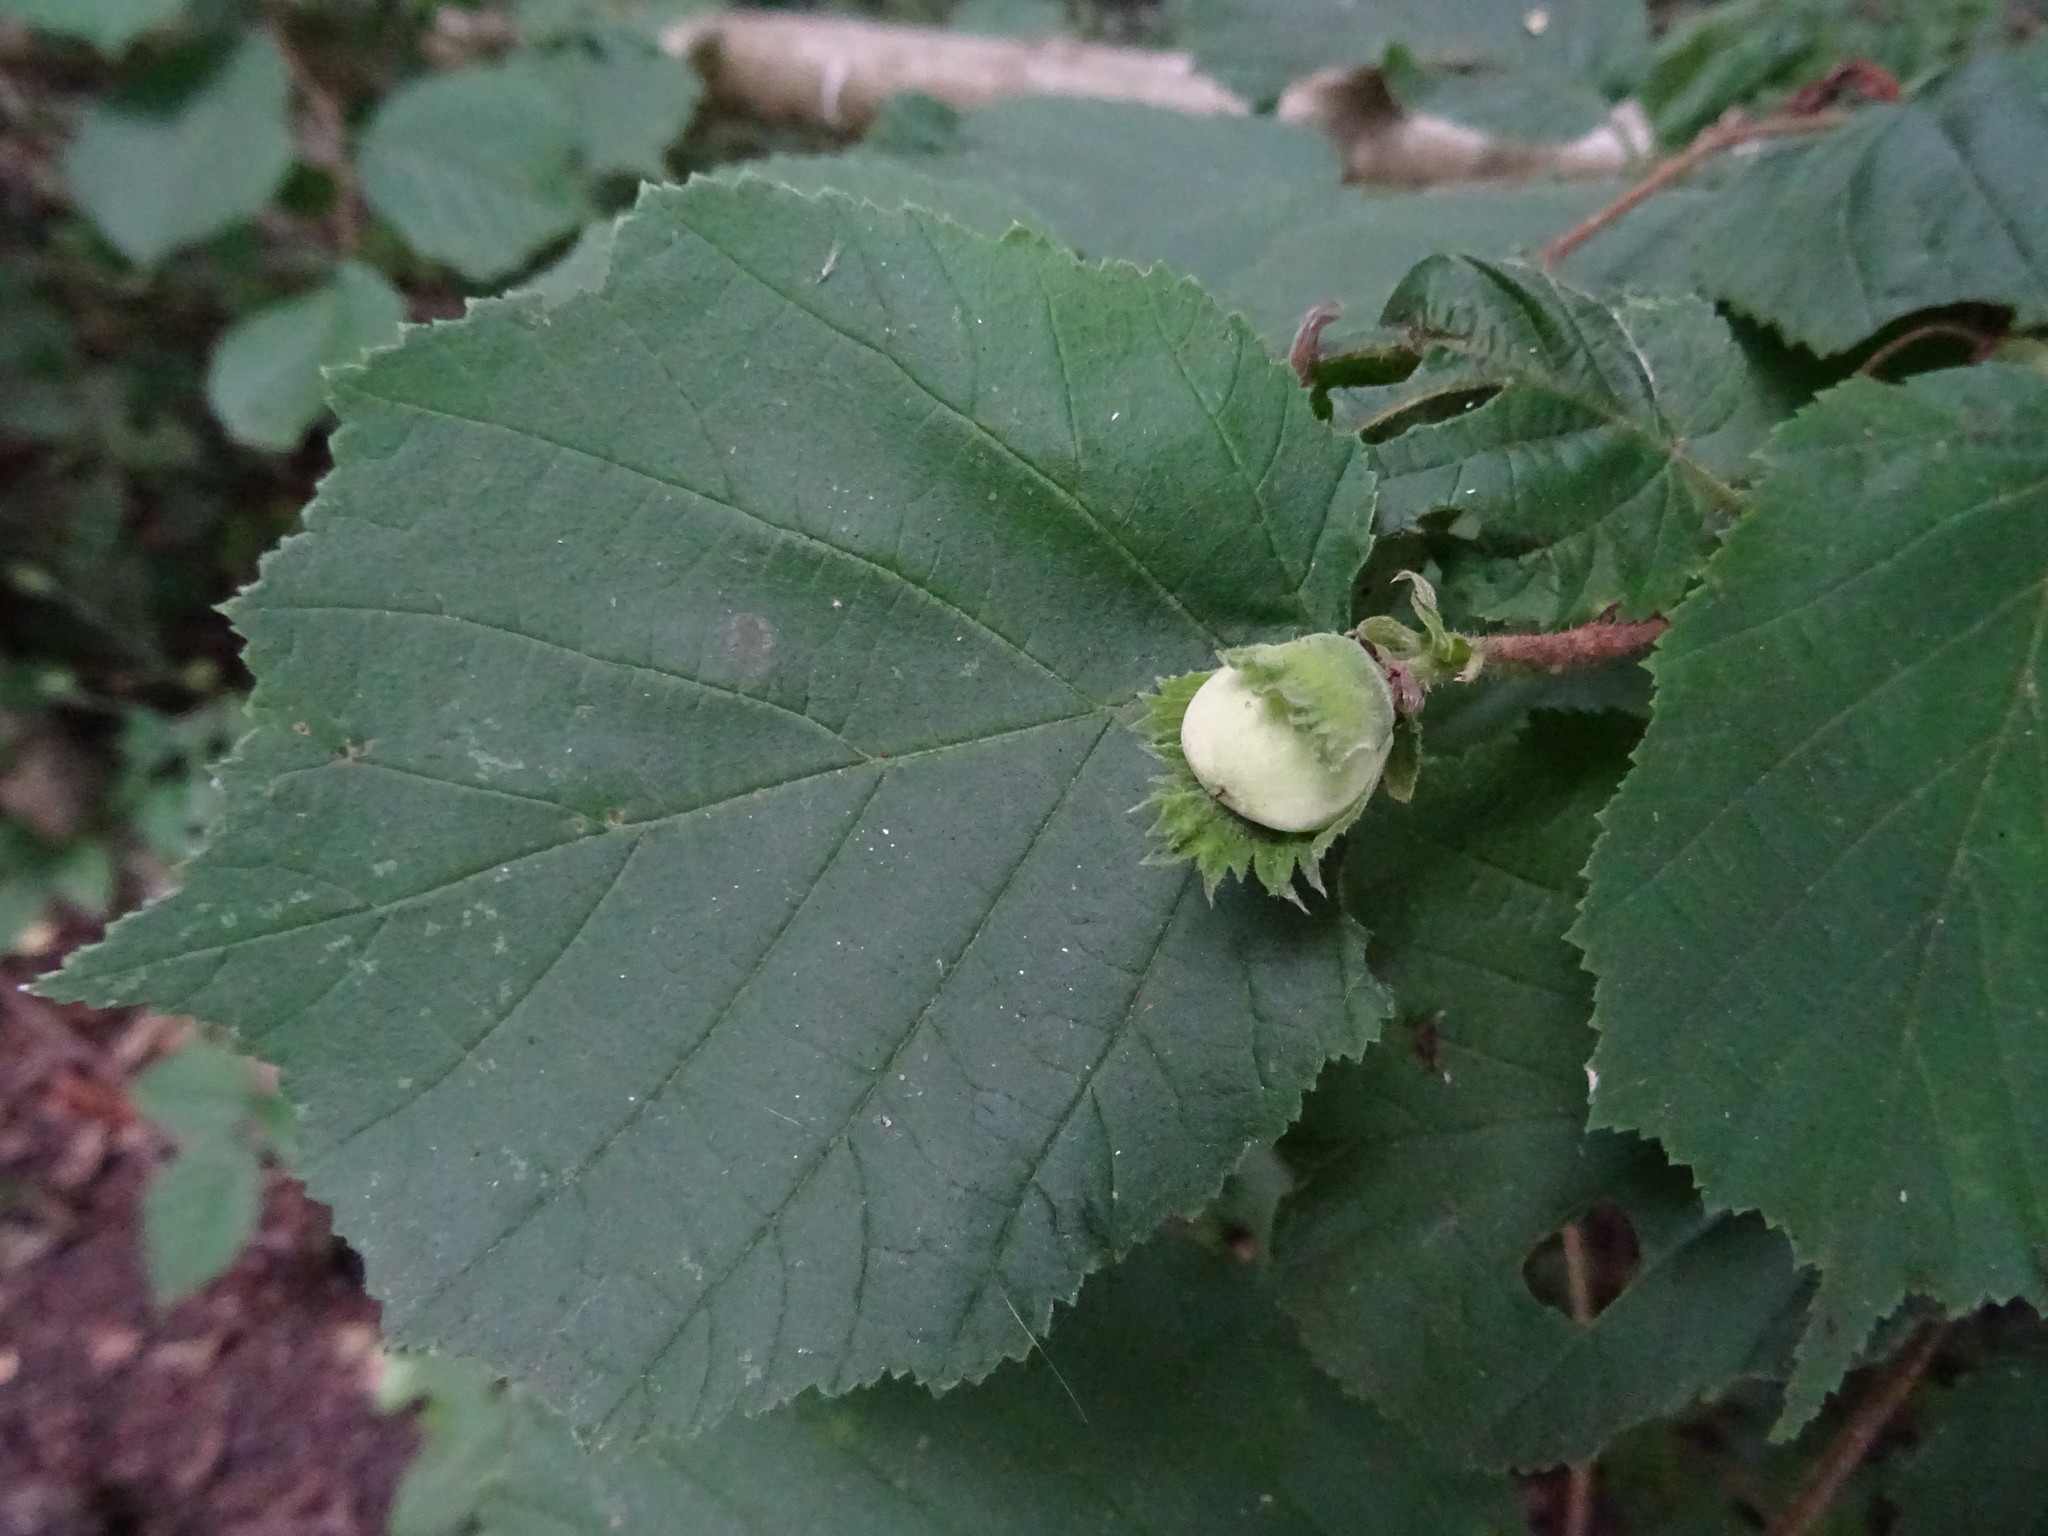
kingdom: Plantae
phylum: Tracheophyta
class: Magnoliopsida
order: Fagales
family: Betulaceae
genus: Corylus
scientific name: Corylus avellana
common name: European hazel
